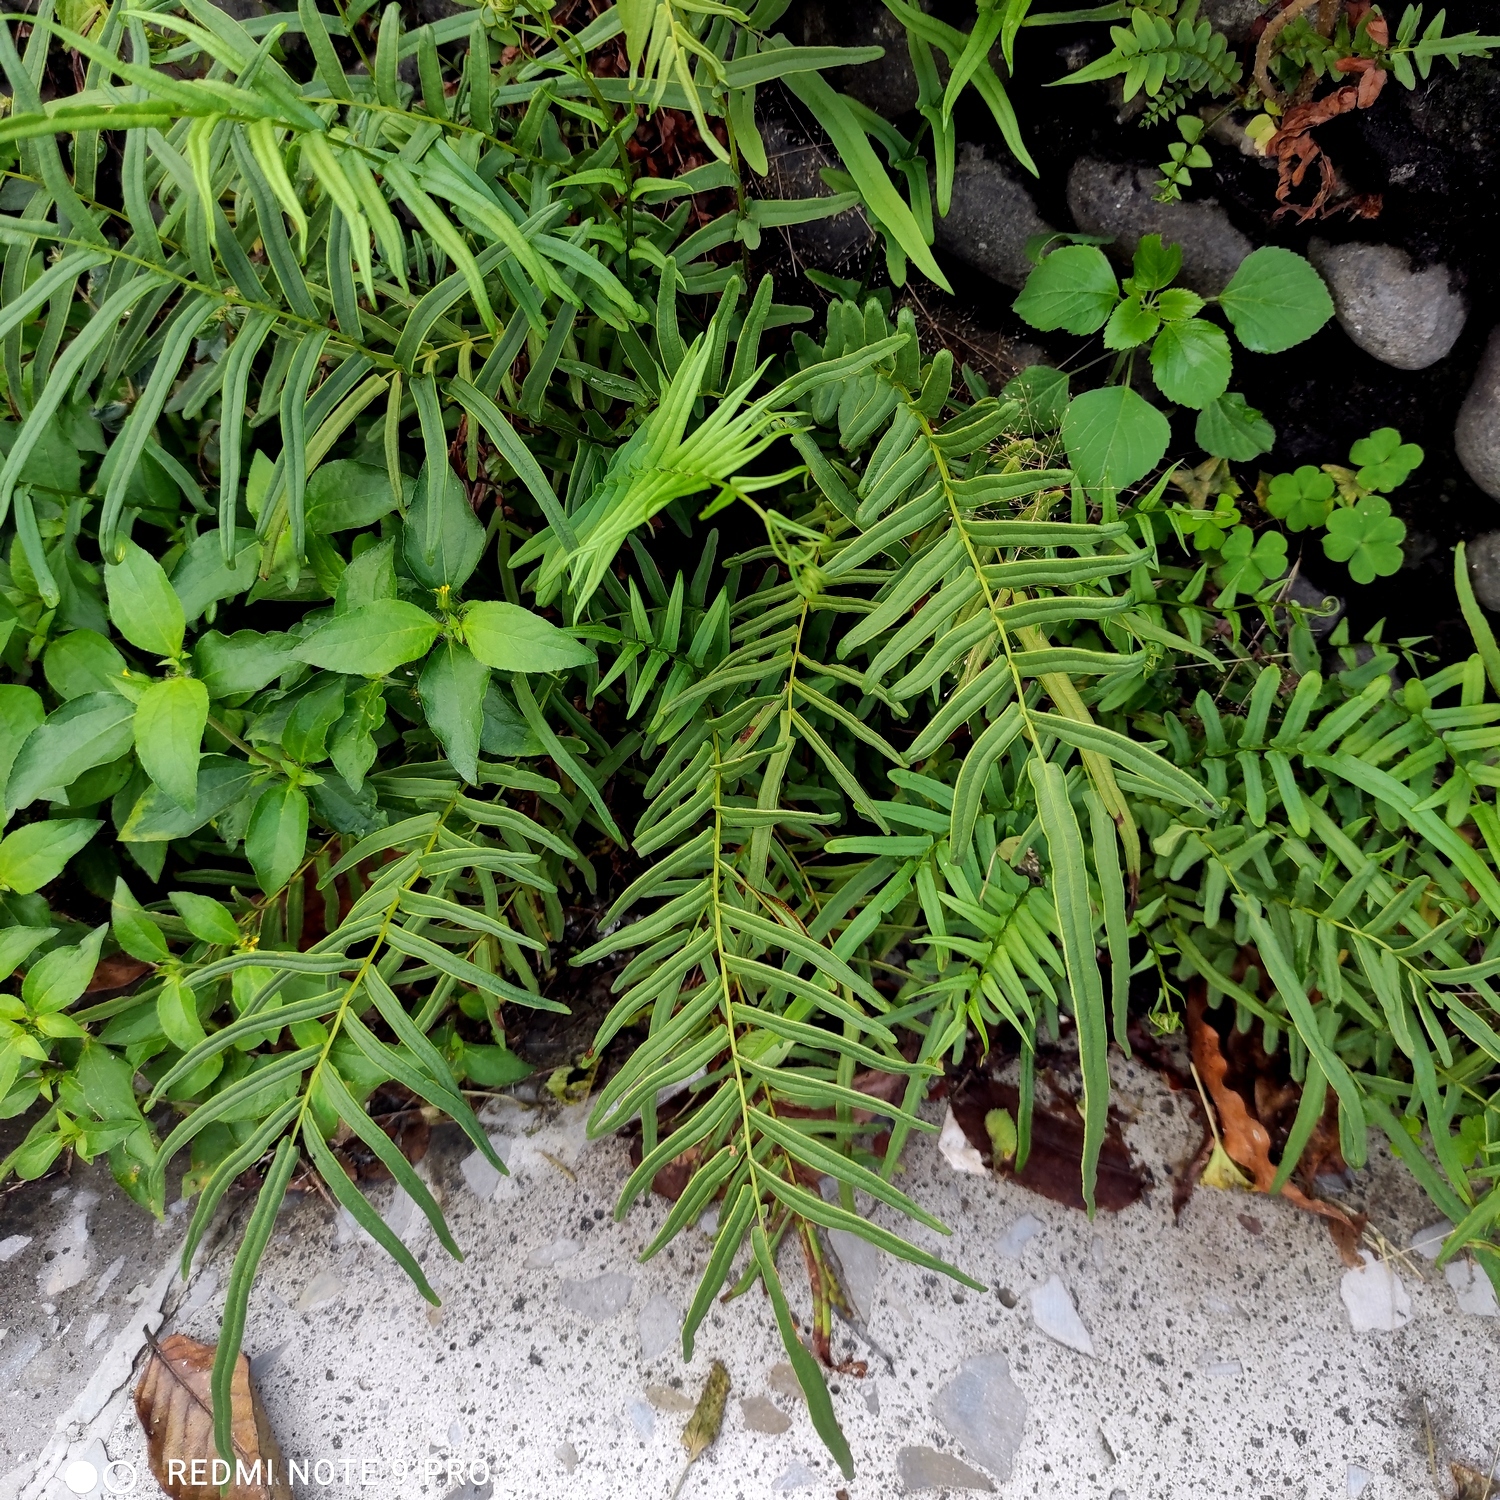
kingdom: Plantae
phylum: Tracheophyta
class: Polypodiopsida
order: Polypodiales
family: Pteridaceae
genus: Pteris
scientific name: Pteris vittata
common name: Ladder brake
